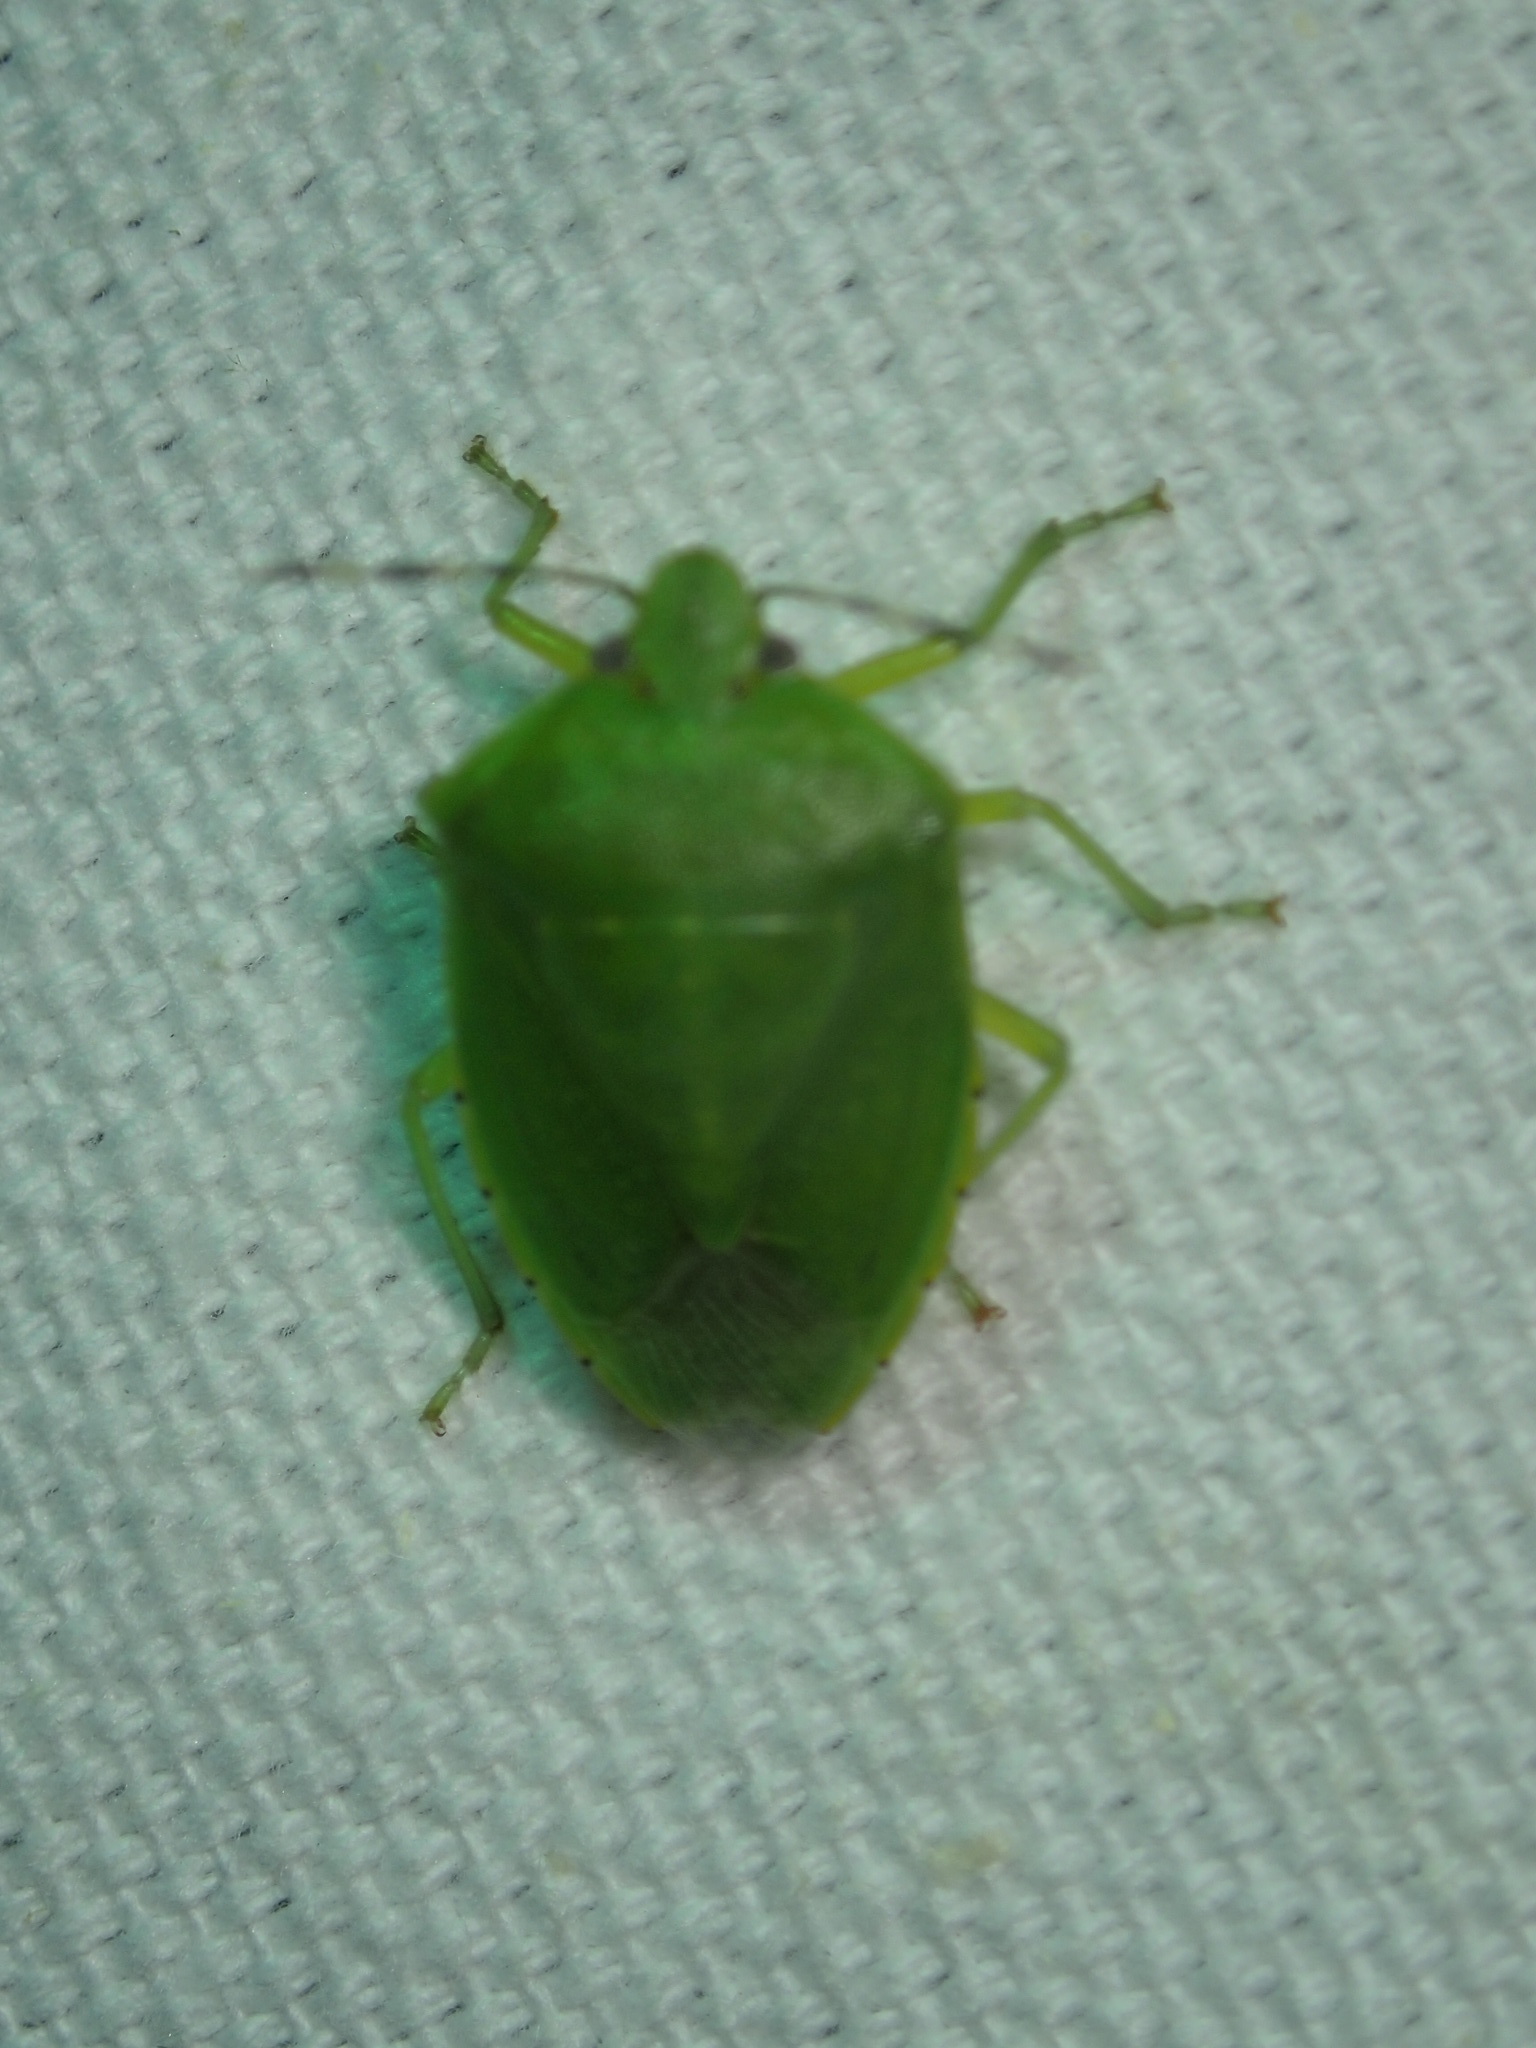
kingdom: Animalia
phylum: Arthropoda
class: Insecta
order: Hemiptera
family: Pentatomidae
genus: Chinavia
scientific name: Chinavia hilaris
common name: Green stink bug
